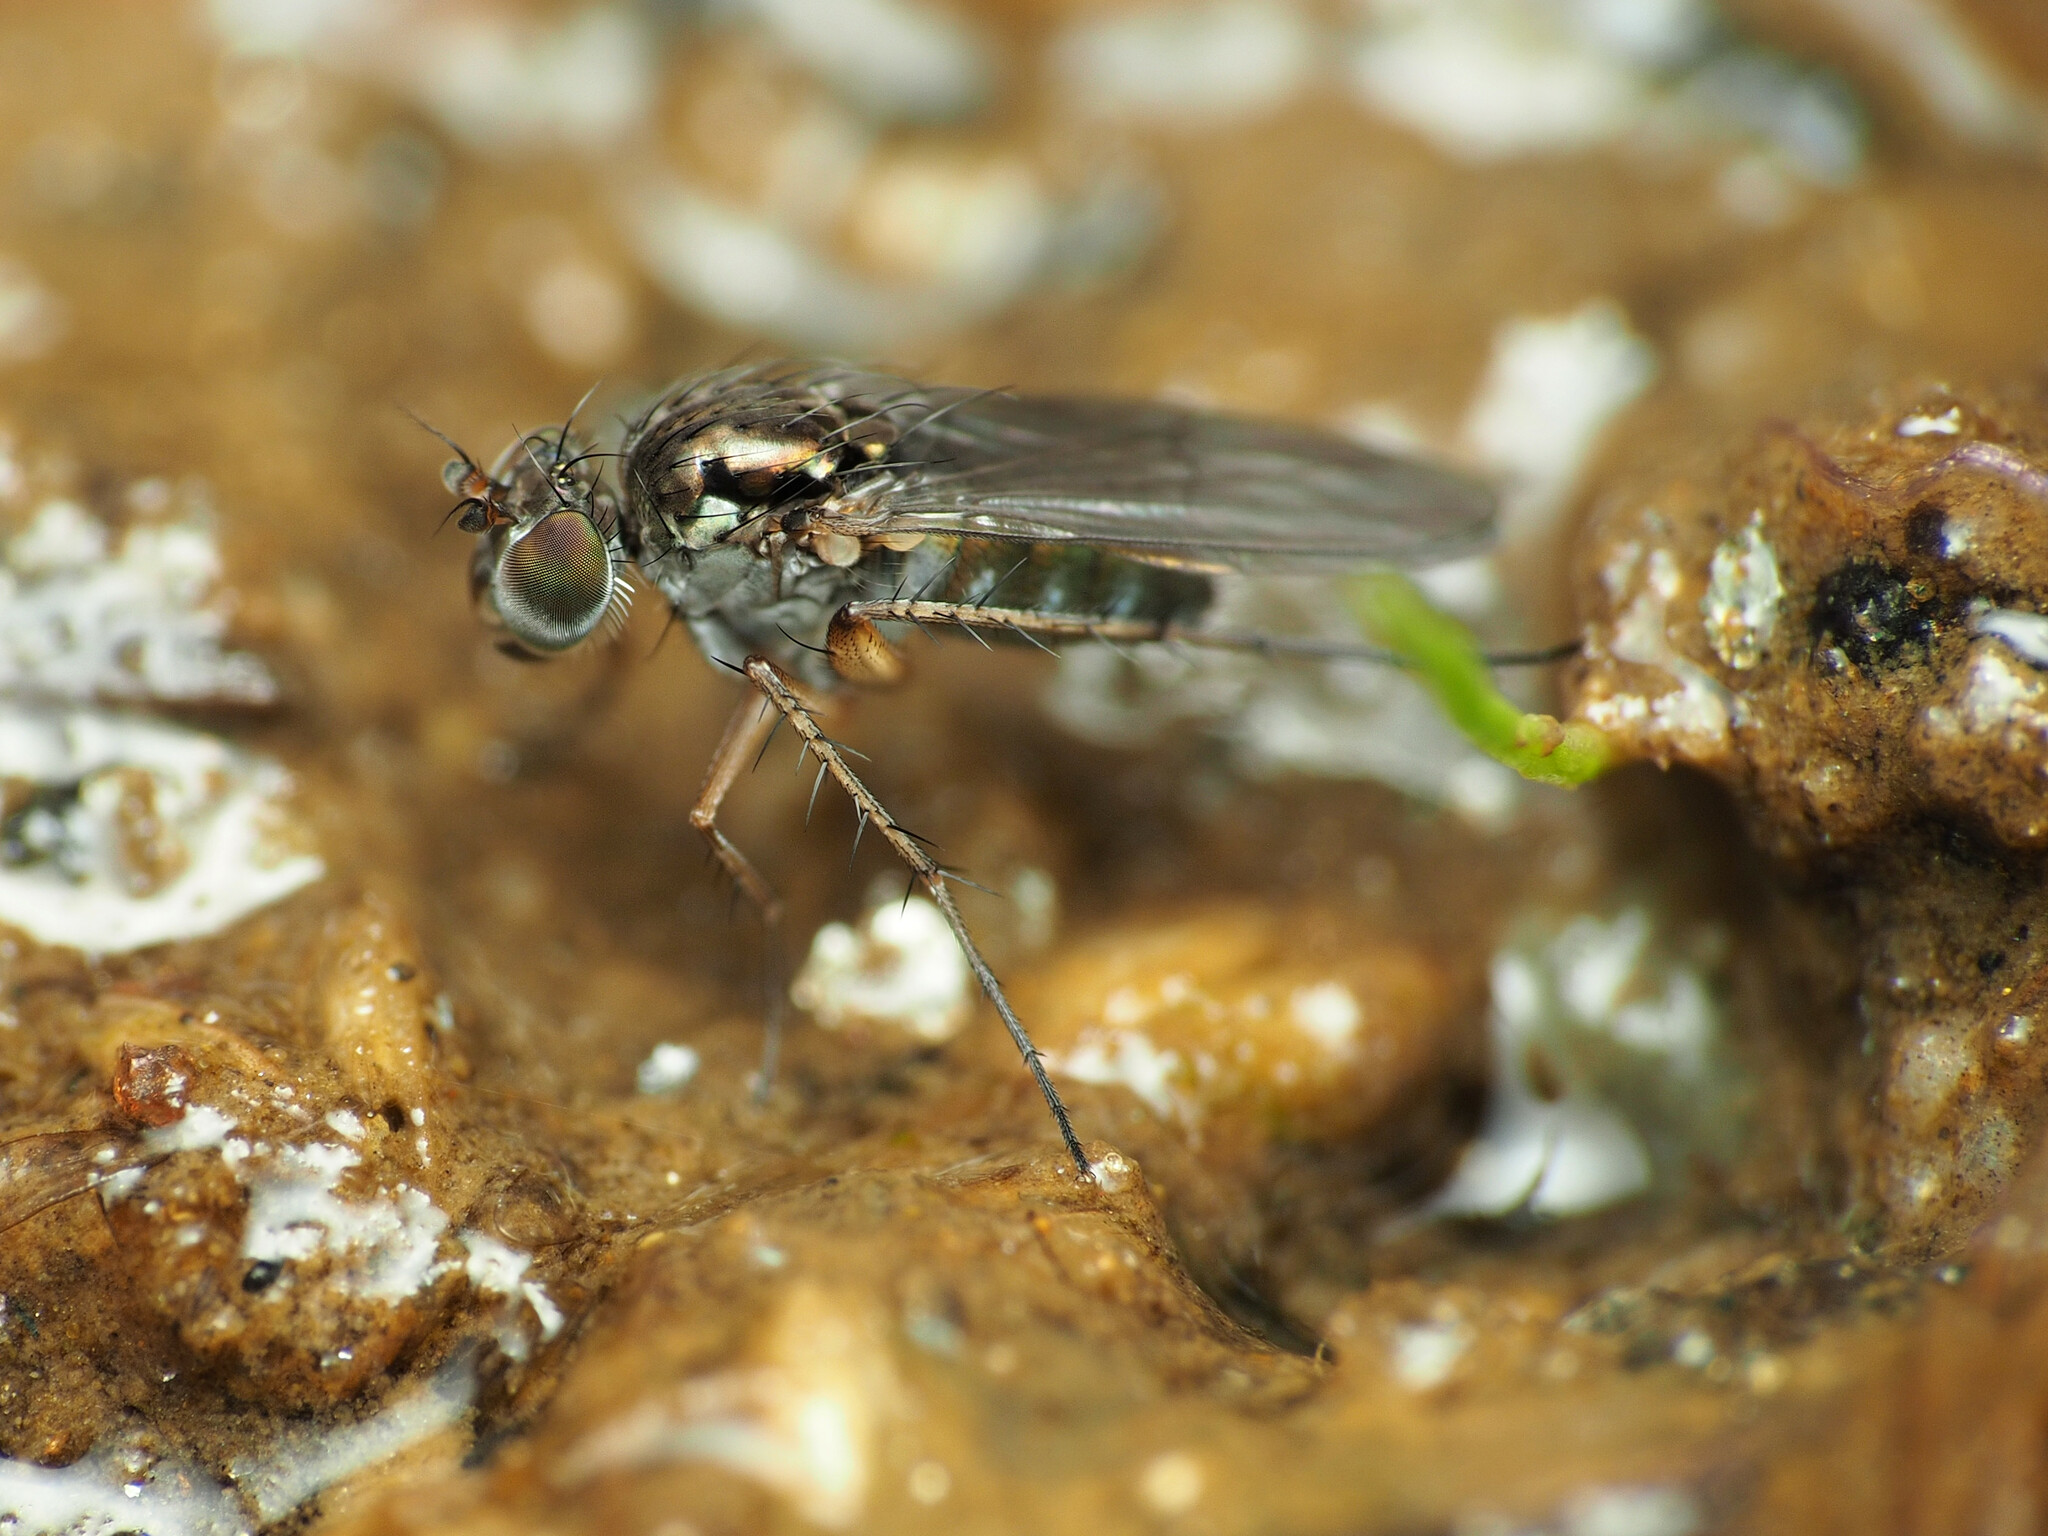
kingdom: Animalia
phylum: Arthropoda
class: Insecta
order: Diptera
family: Dolichopodidae
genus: Pelastoneurus
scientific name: Pelastoneurus vagans
